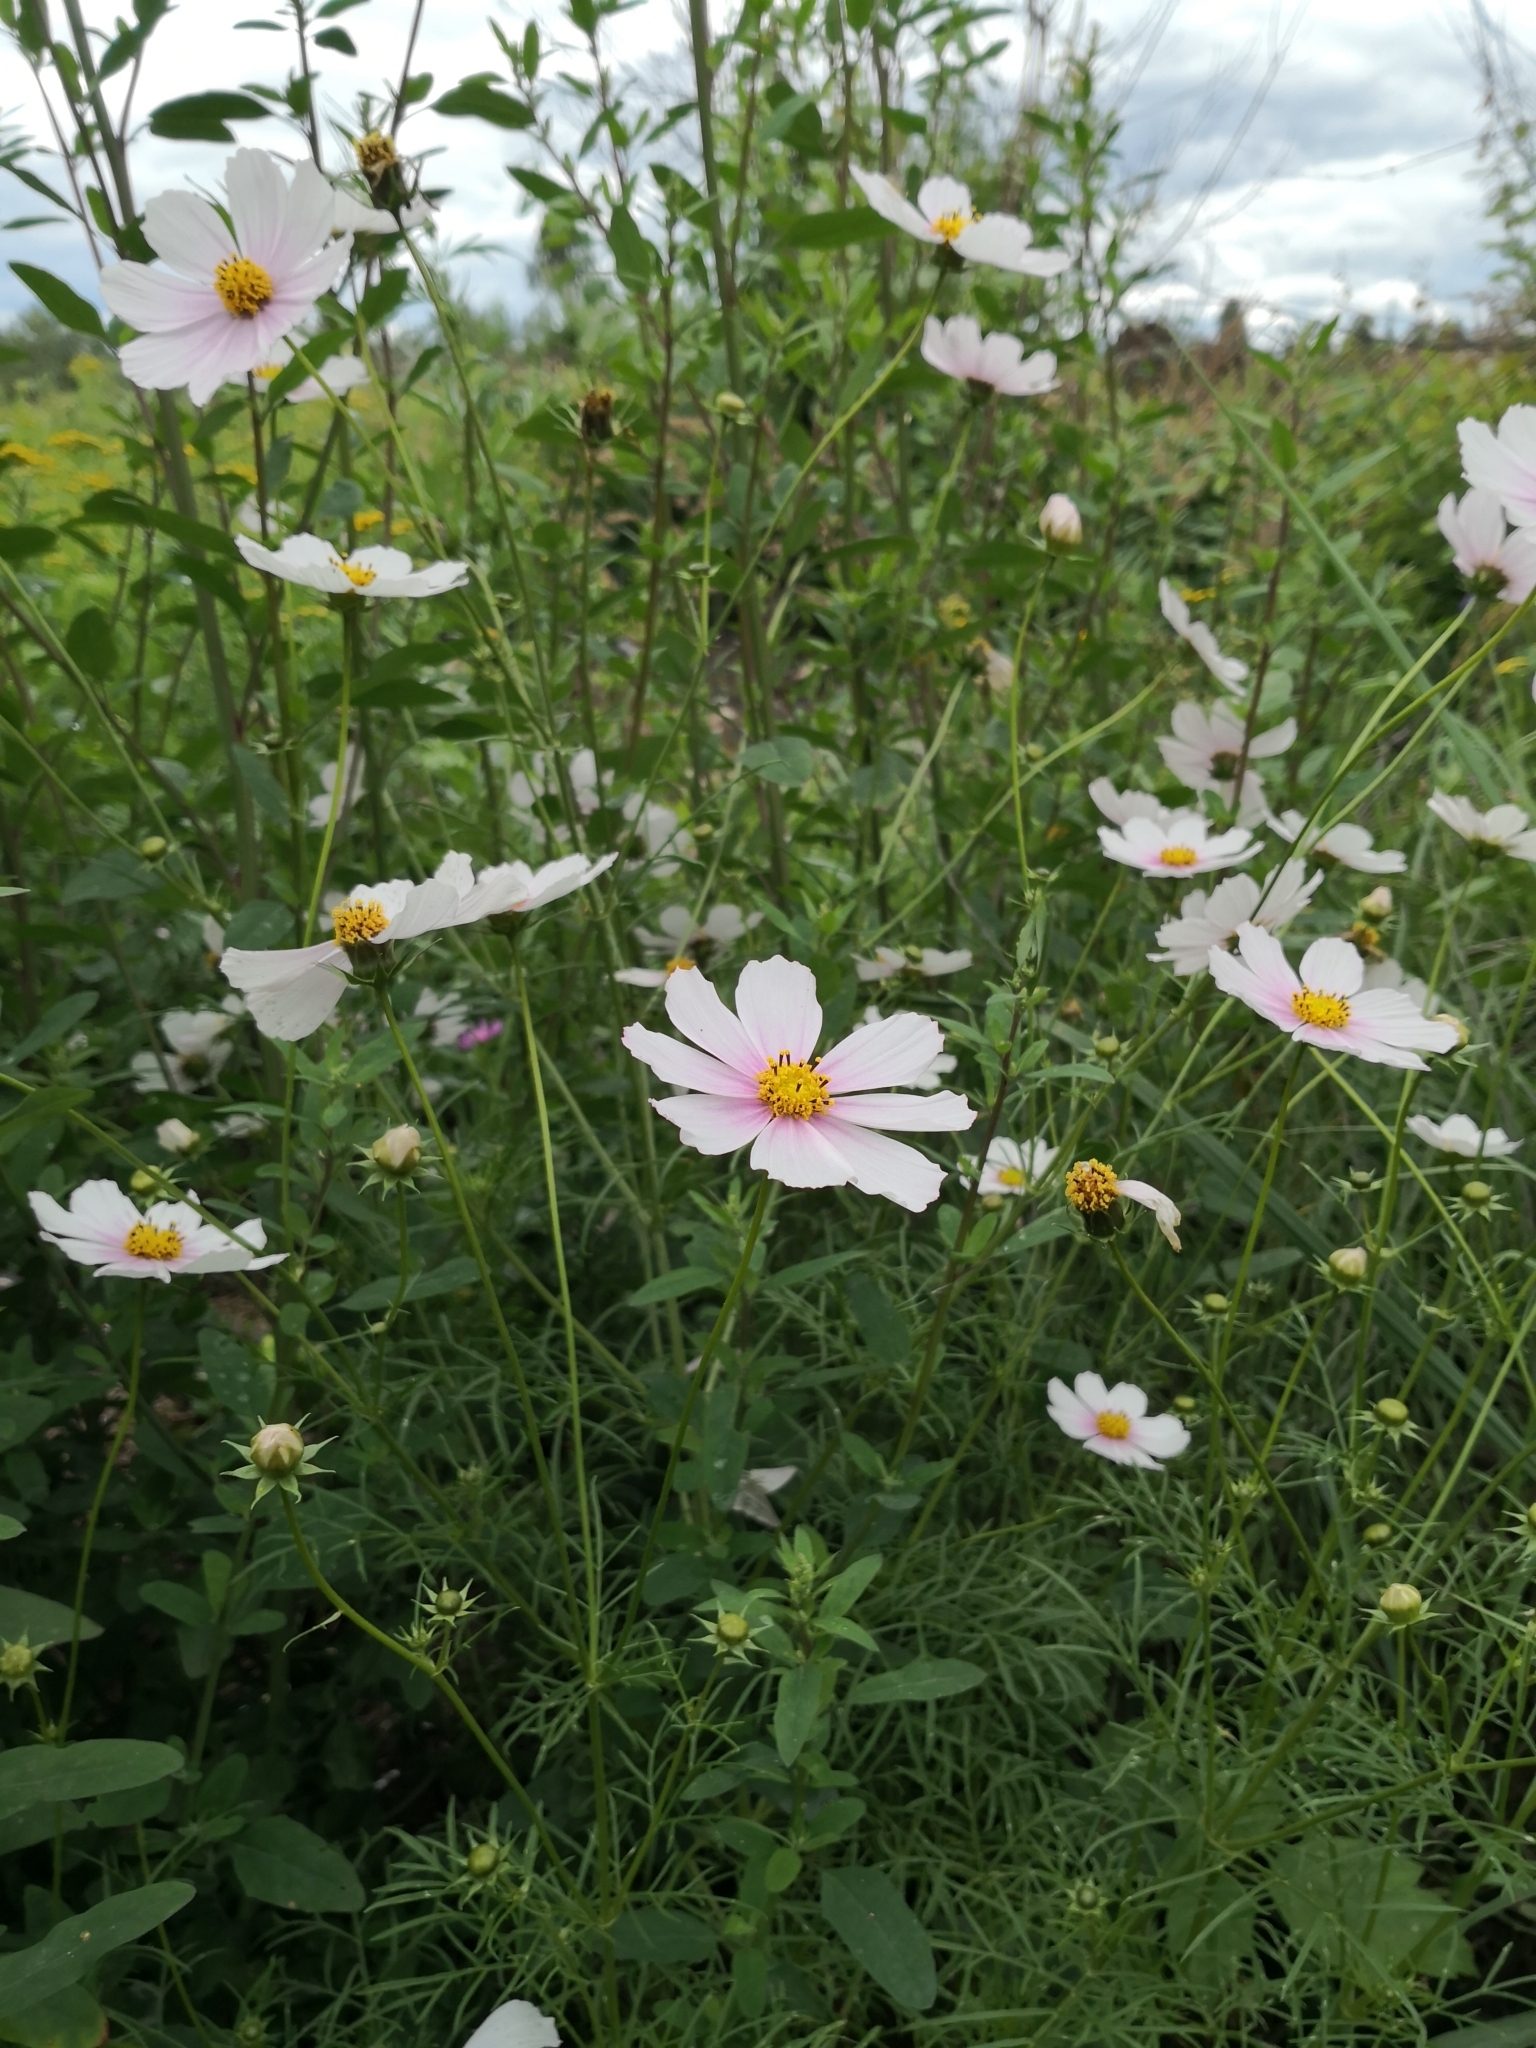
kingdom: Plantae
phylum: Tracheophyta
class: Magnoliopsida
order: Asterales
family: Asteraceae
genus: Cosmos
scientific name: Cosmos bipinnatus
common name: Garden cosmos
